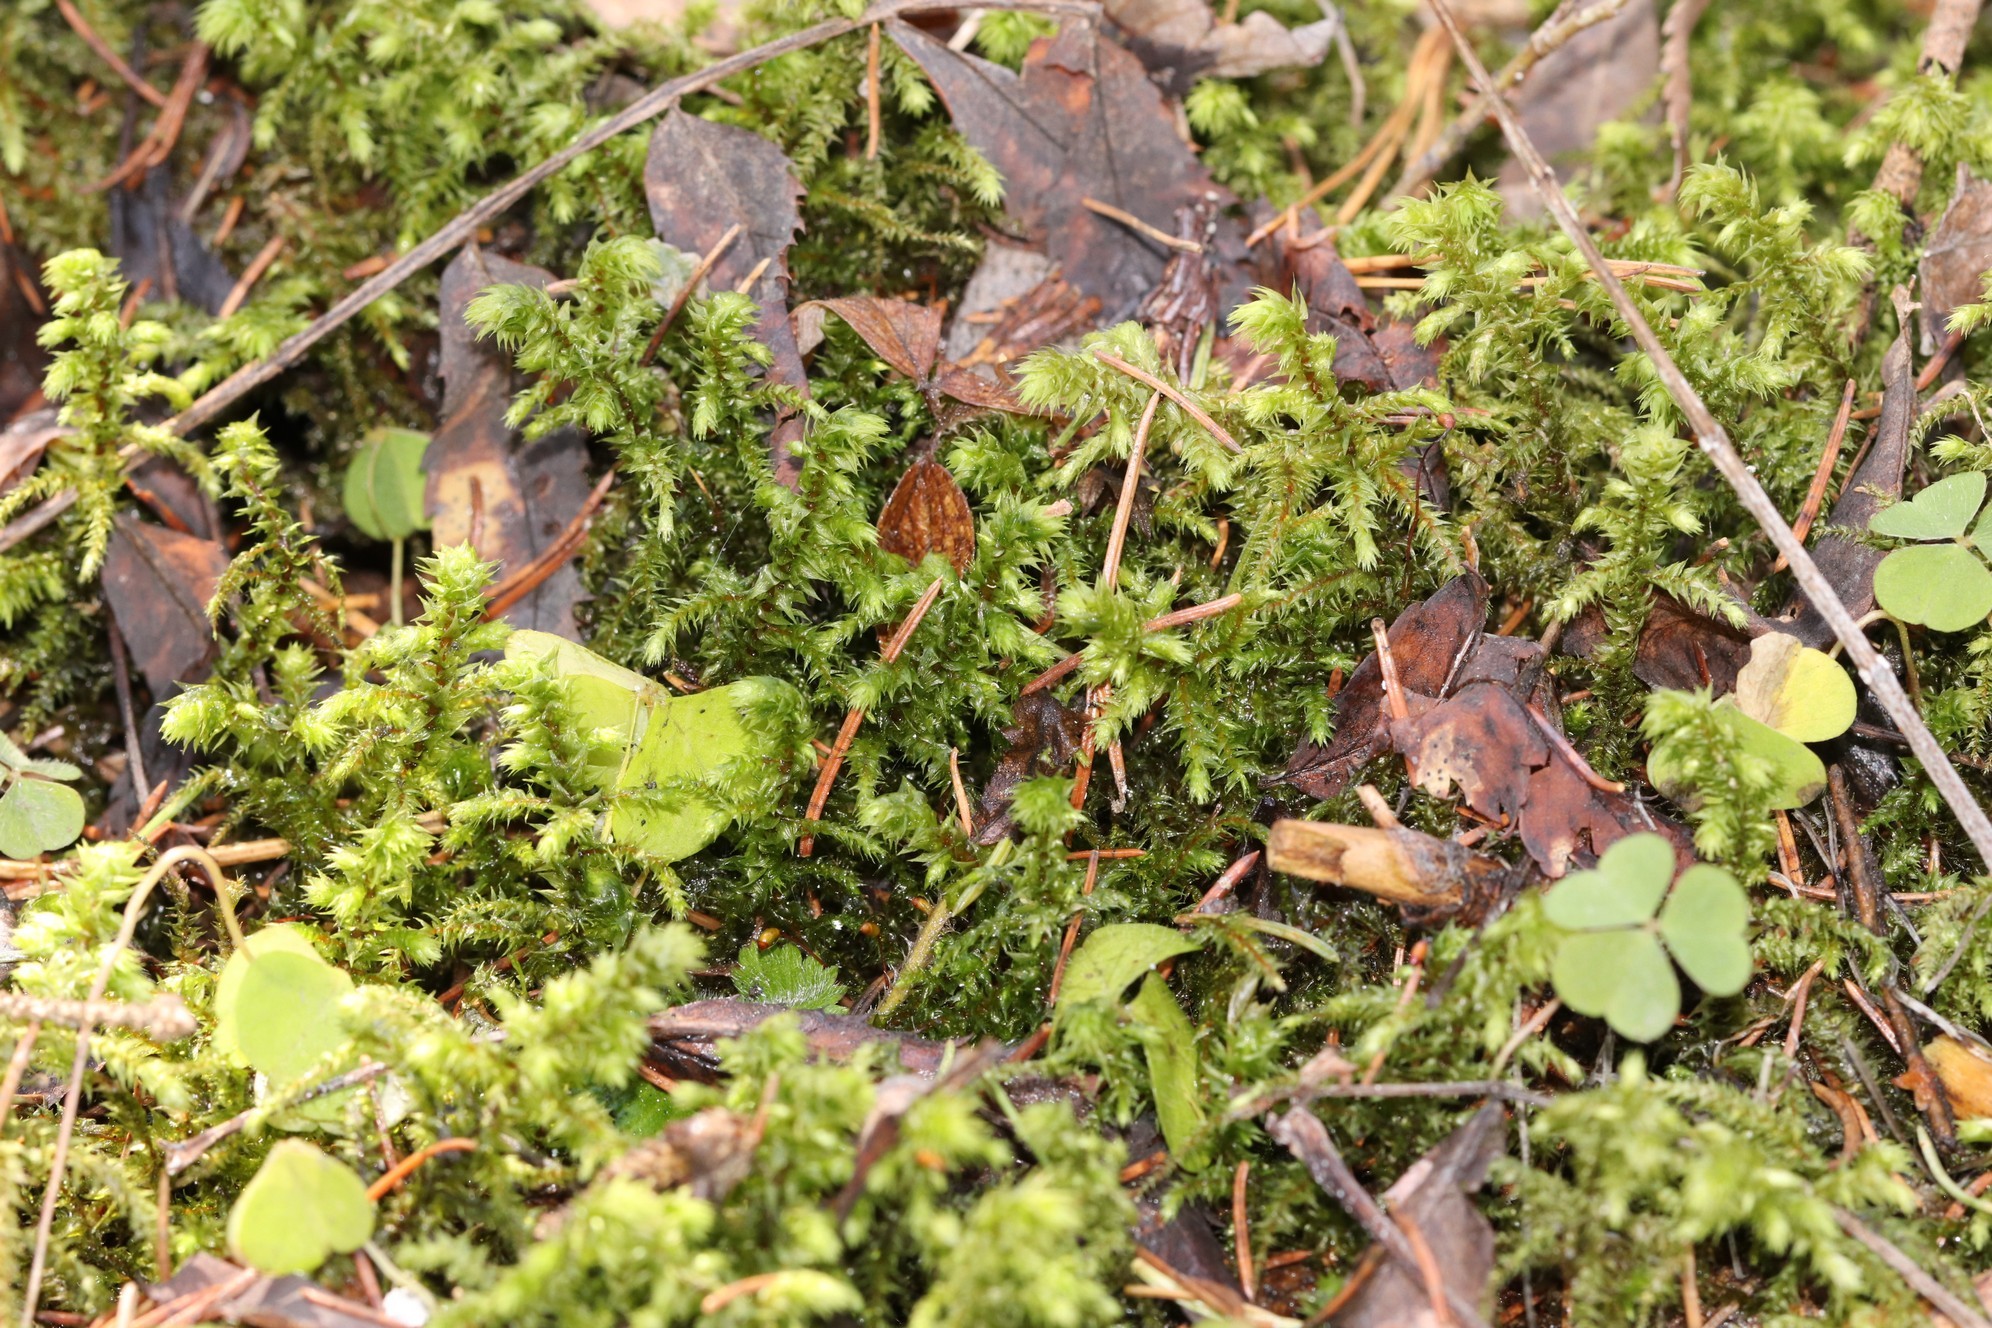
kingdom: Plantae
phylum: Bryophyta
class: Bryopsida
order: Hypnales
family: Hylocomiaceae
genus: Hylocomiadelphus
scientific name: Hylocomiadelphus triquetrus
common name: Rough goose neck moss
